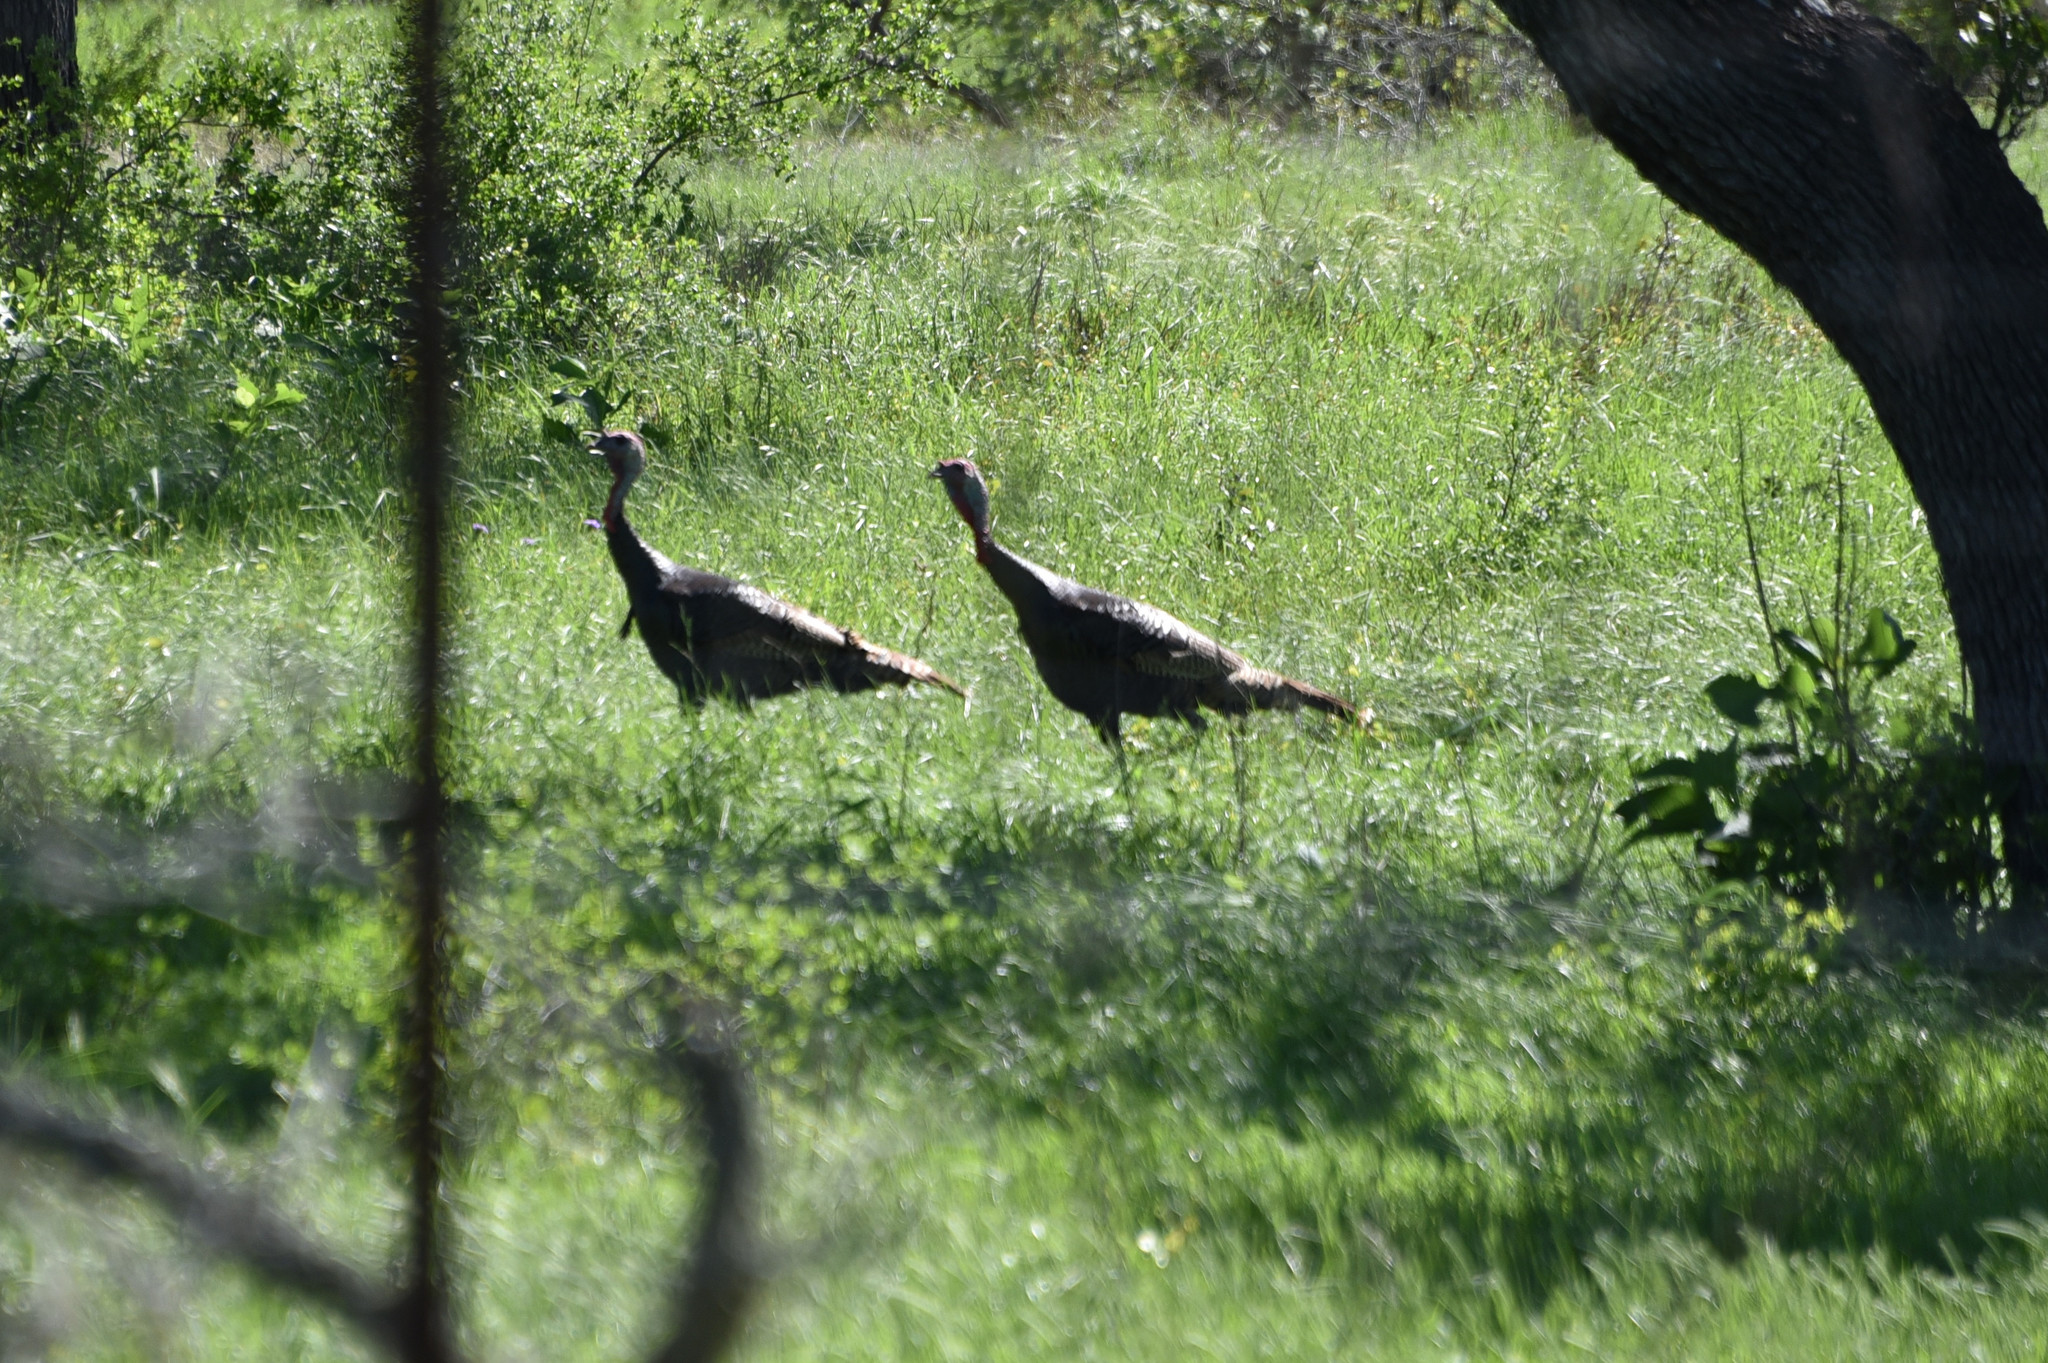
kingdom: Animalia
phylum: Chordata
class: Aves
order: Galliformes
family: Phasianidae
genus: Meleagris
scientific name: Meleagris gallopavo
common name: Wild turkey
